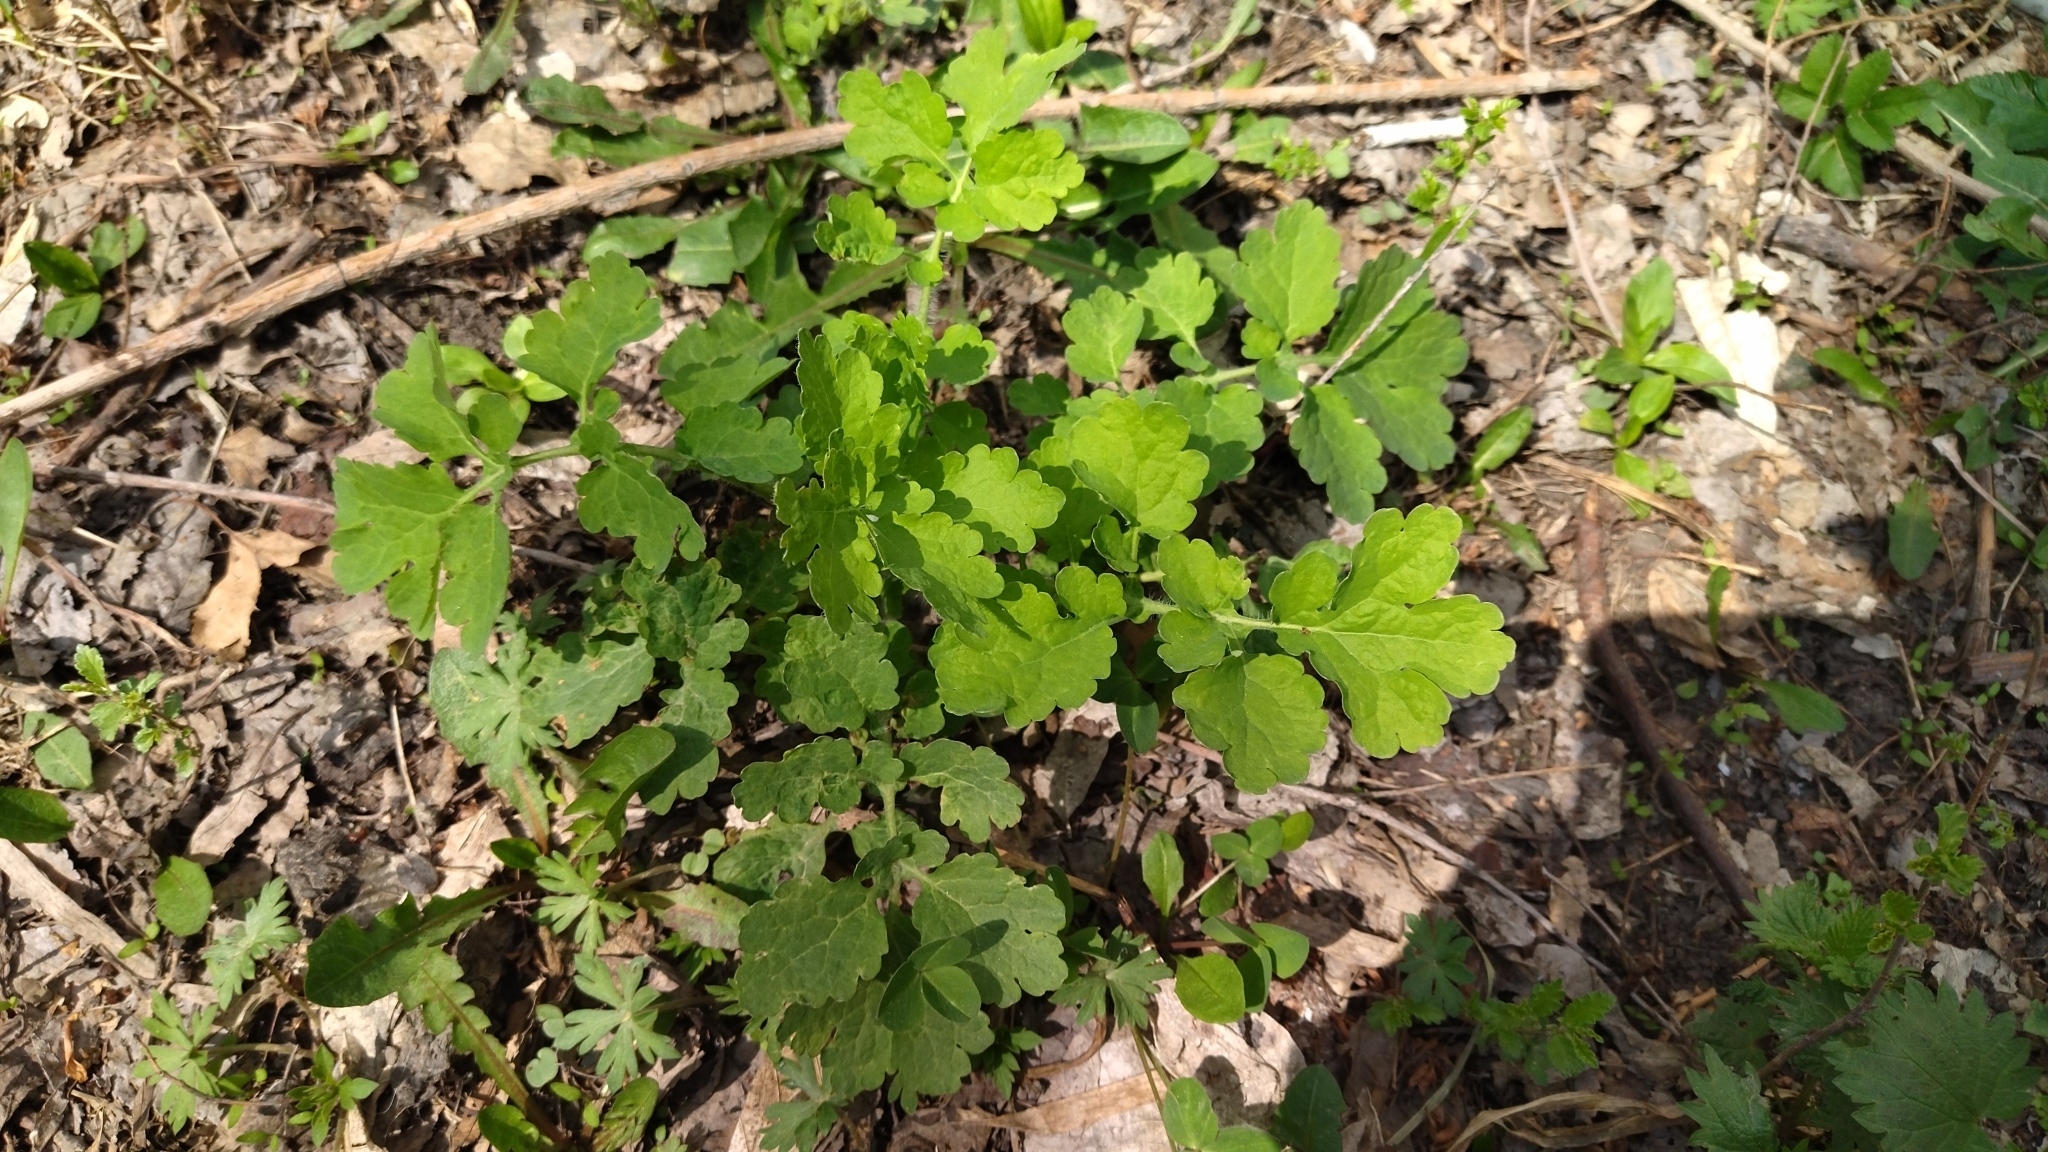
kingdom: Plantae
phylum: Tracheophyta
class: Magnoliopsida
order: Ranunculales
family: Papaveraceae
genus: Chelidonium
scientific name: Chelidonium majus
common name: Greater celandine
